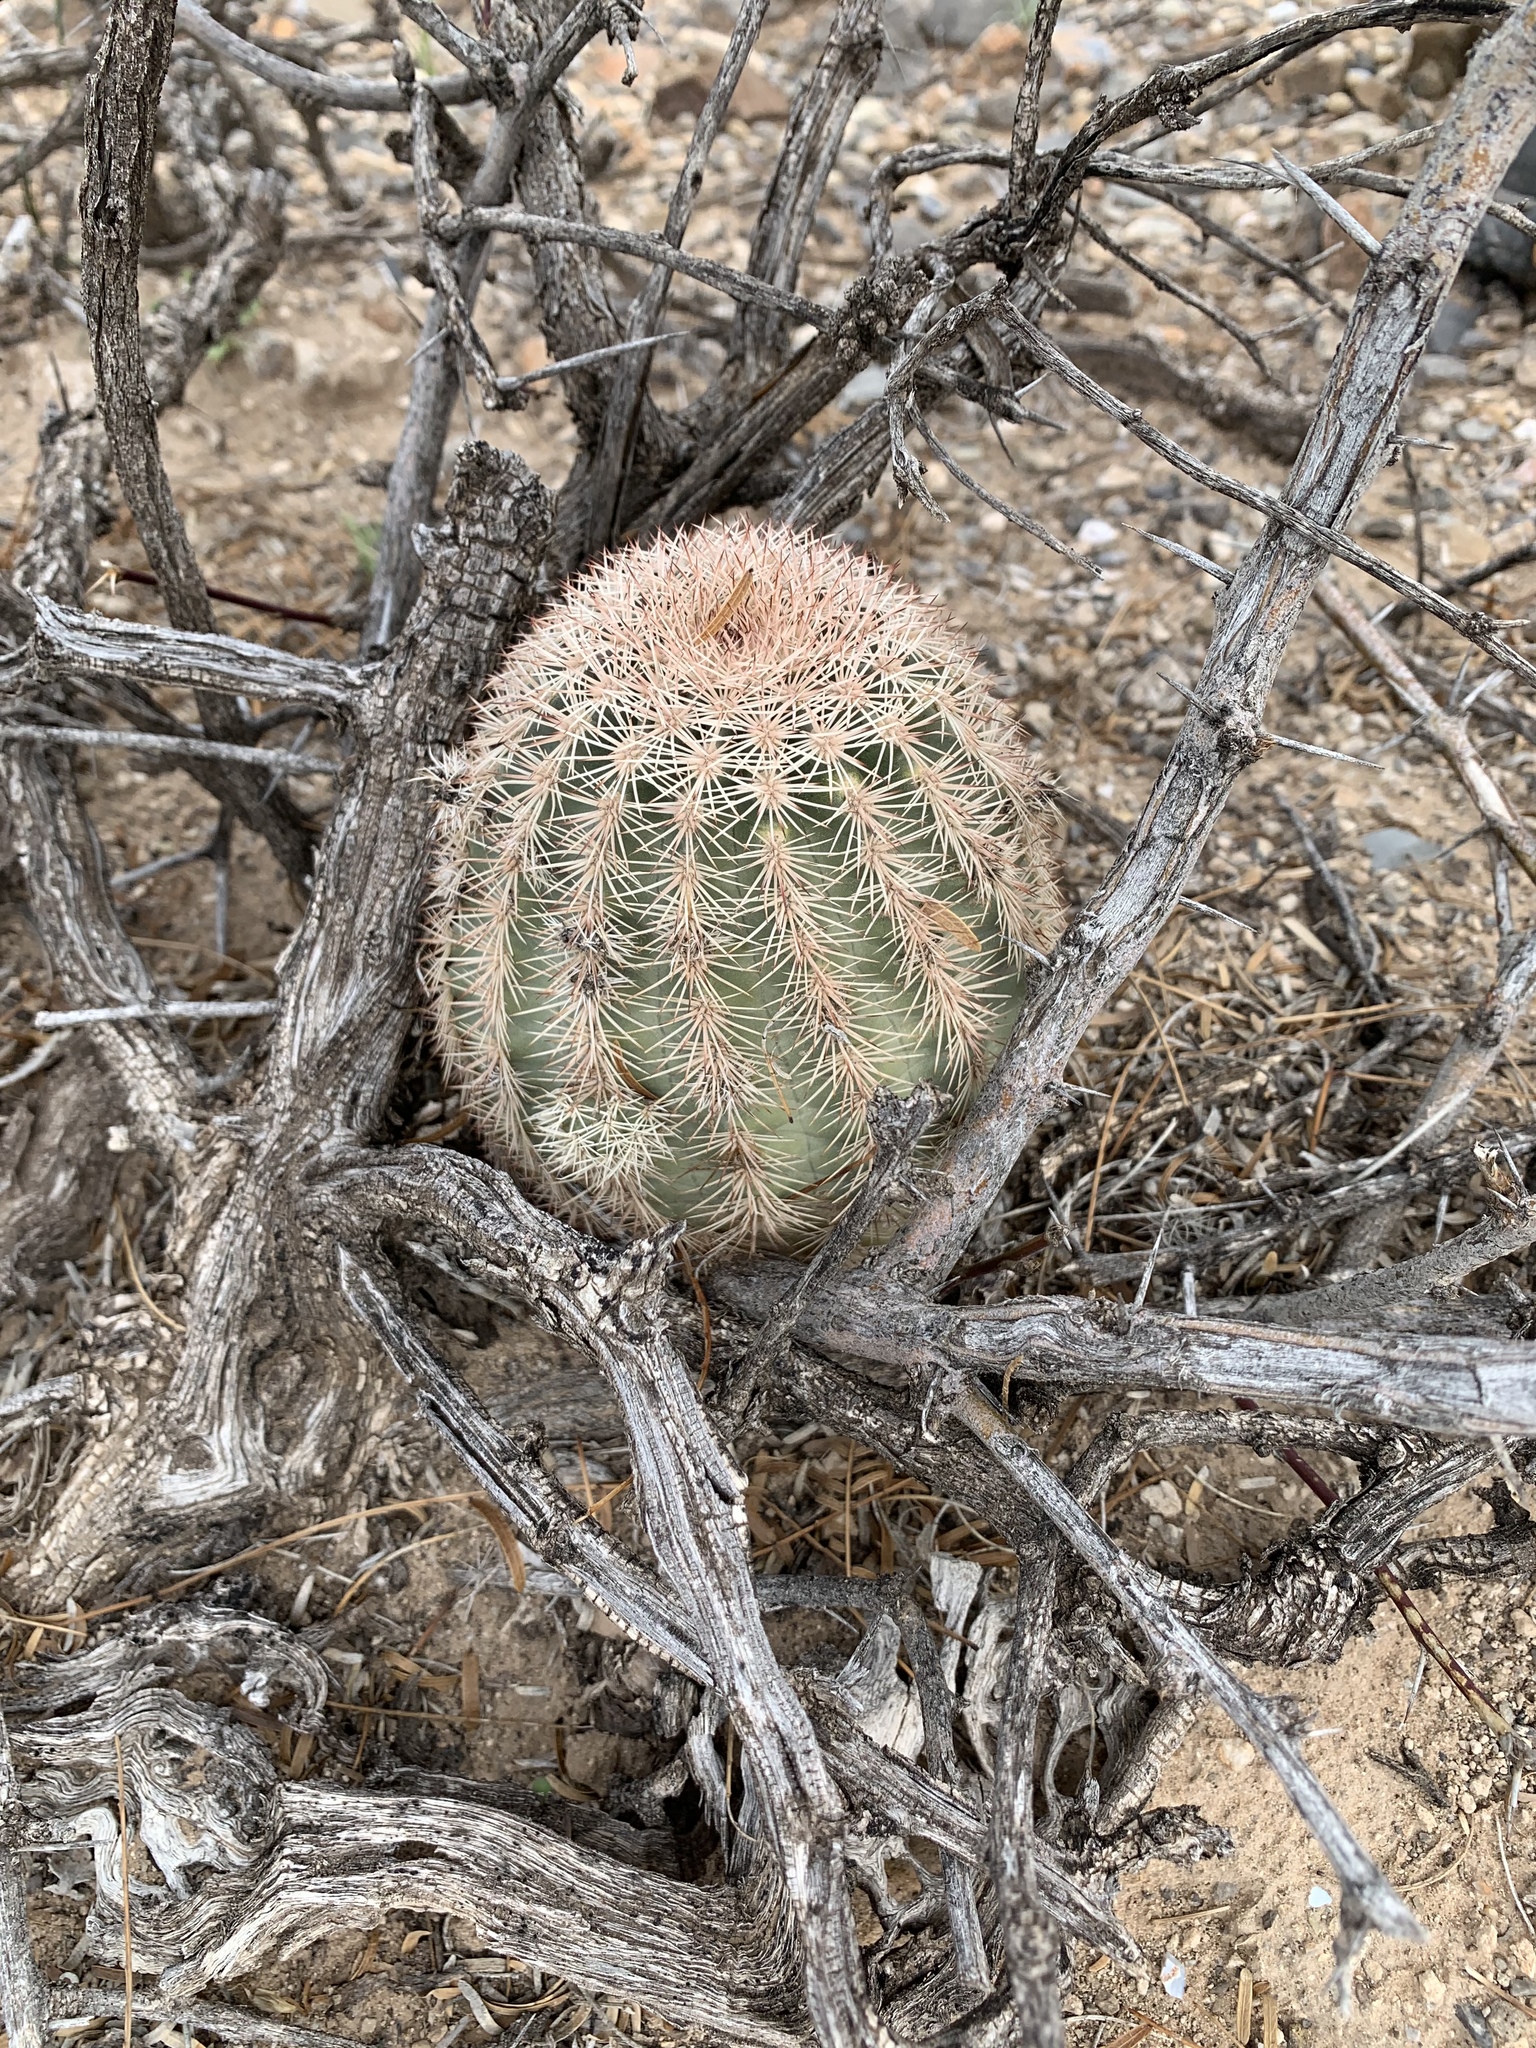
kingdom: Plantae
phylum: Tracheophyta
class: Magnoliopsida
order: Caryophyllales
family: Cactaceae
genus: Echinocereus
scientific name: Echinocereus dasyacanthus
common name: Spiny hedgehog cactus
